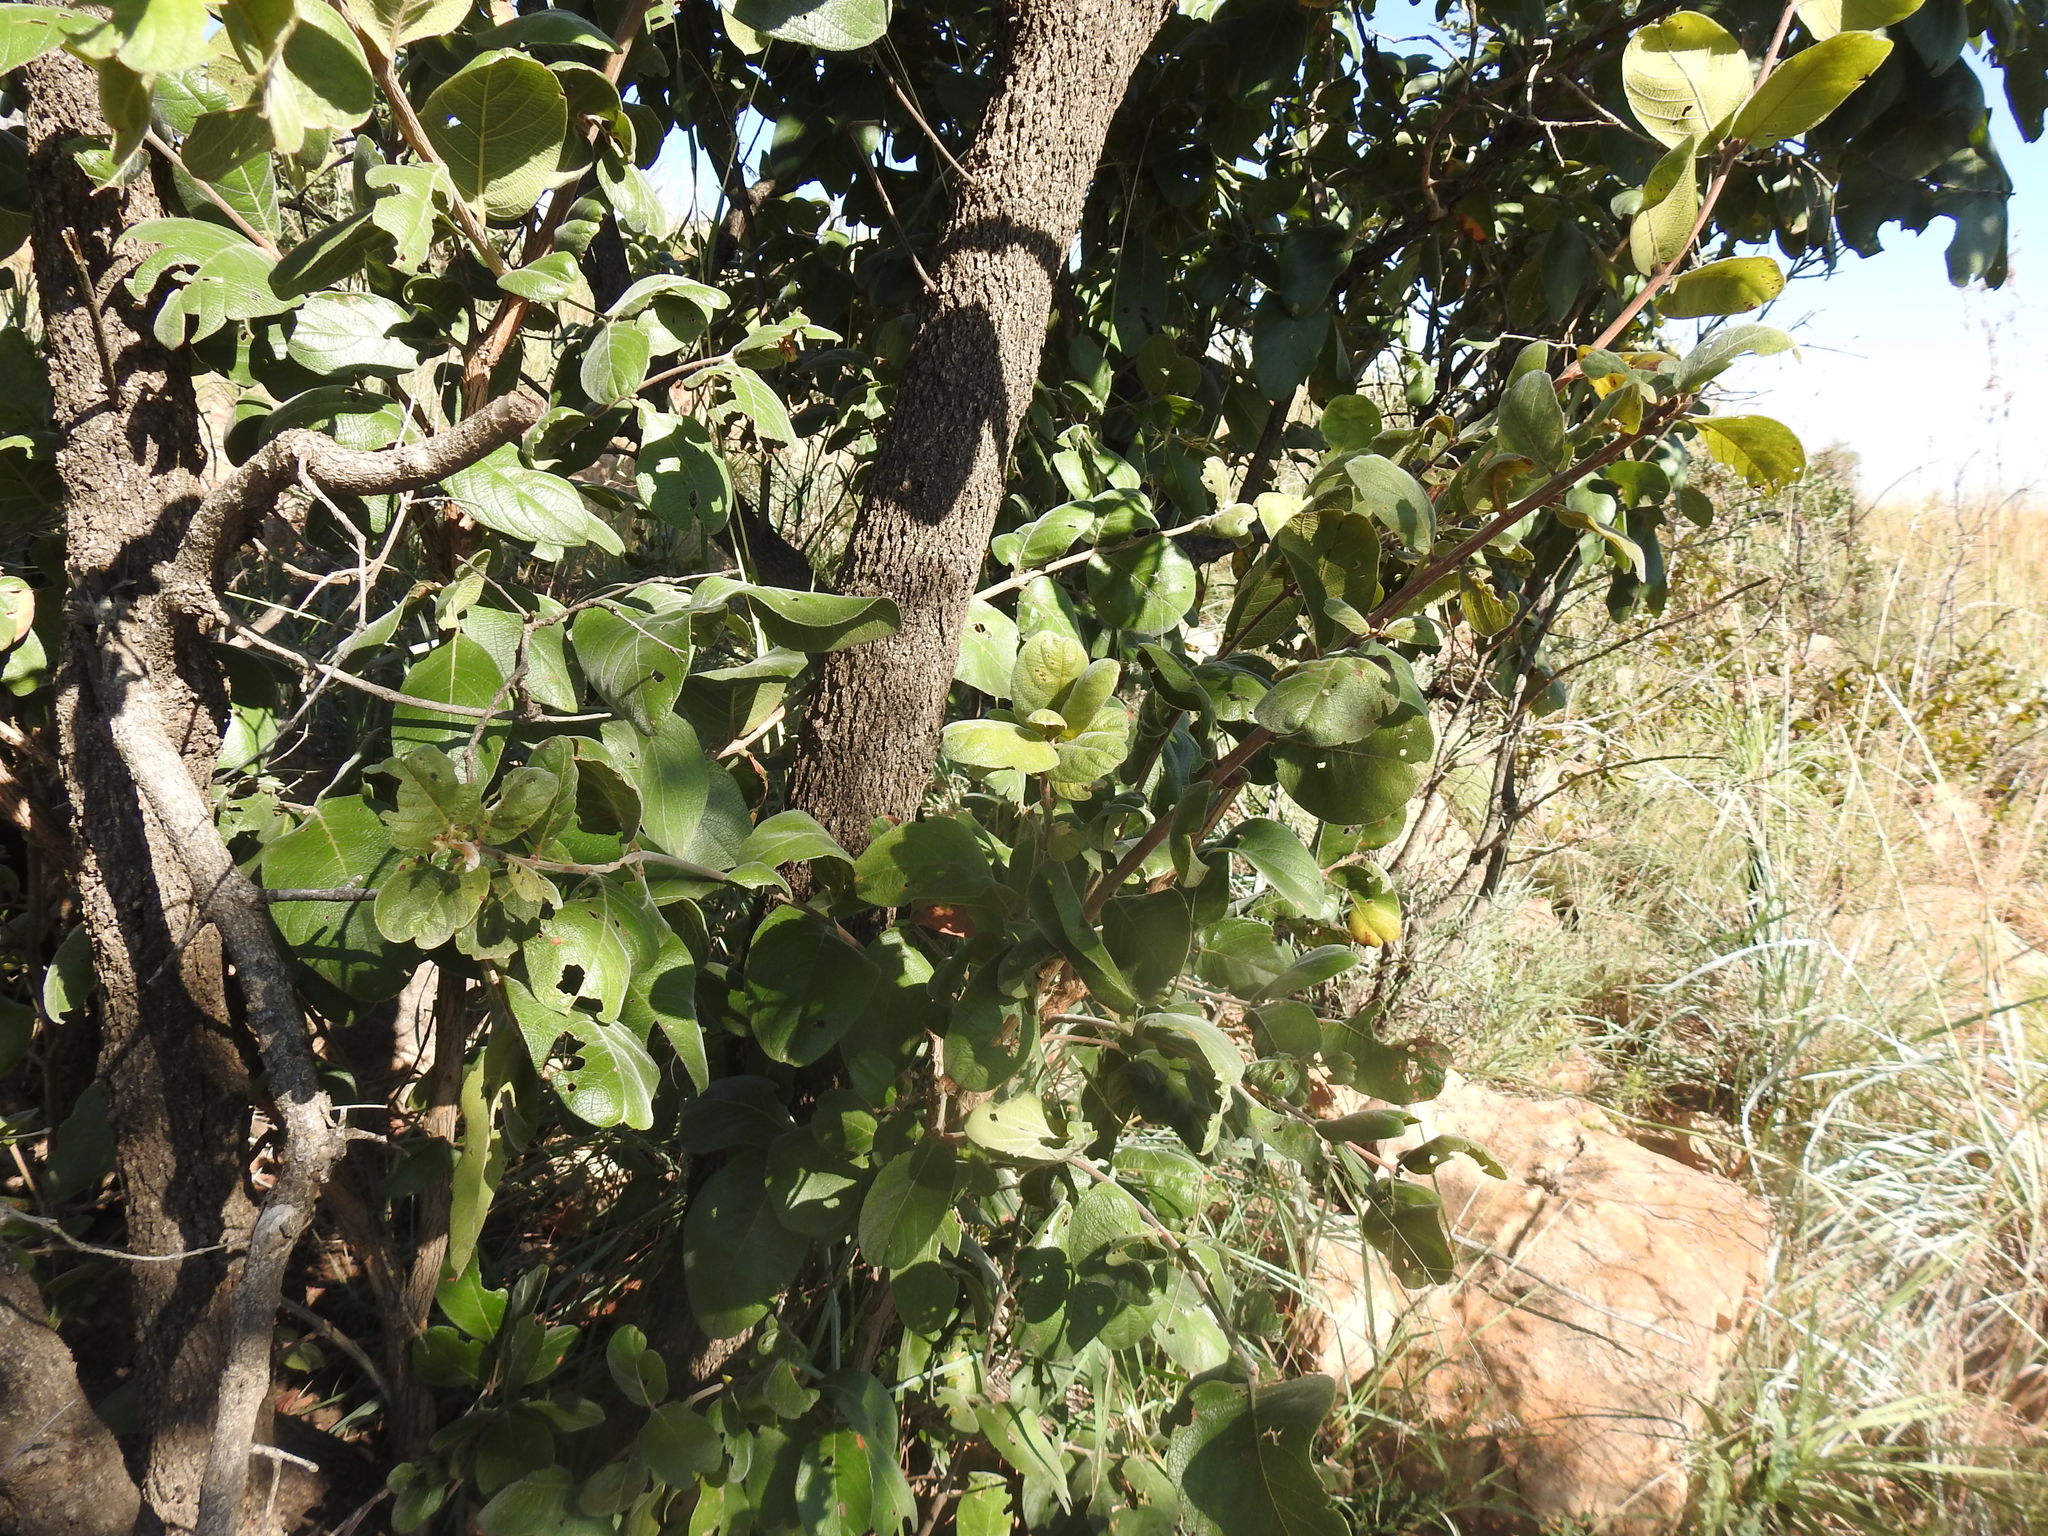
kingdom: Plantae
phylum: Tracheophyta
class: Magnoliopsida
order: Myrtales
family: Combretaceae
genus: Combretum
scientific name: Combretum molle
